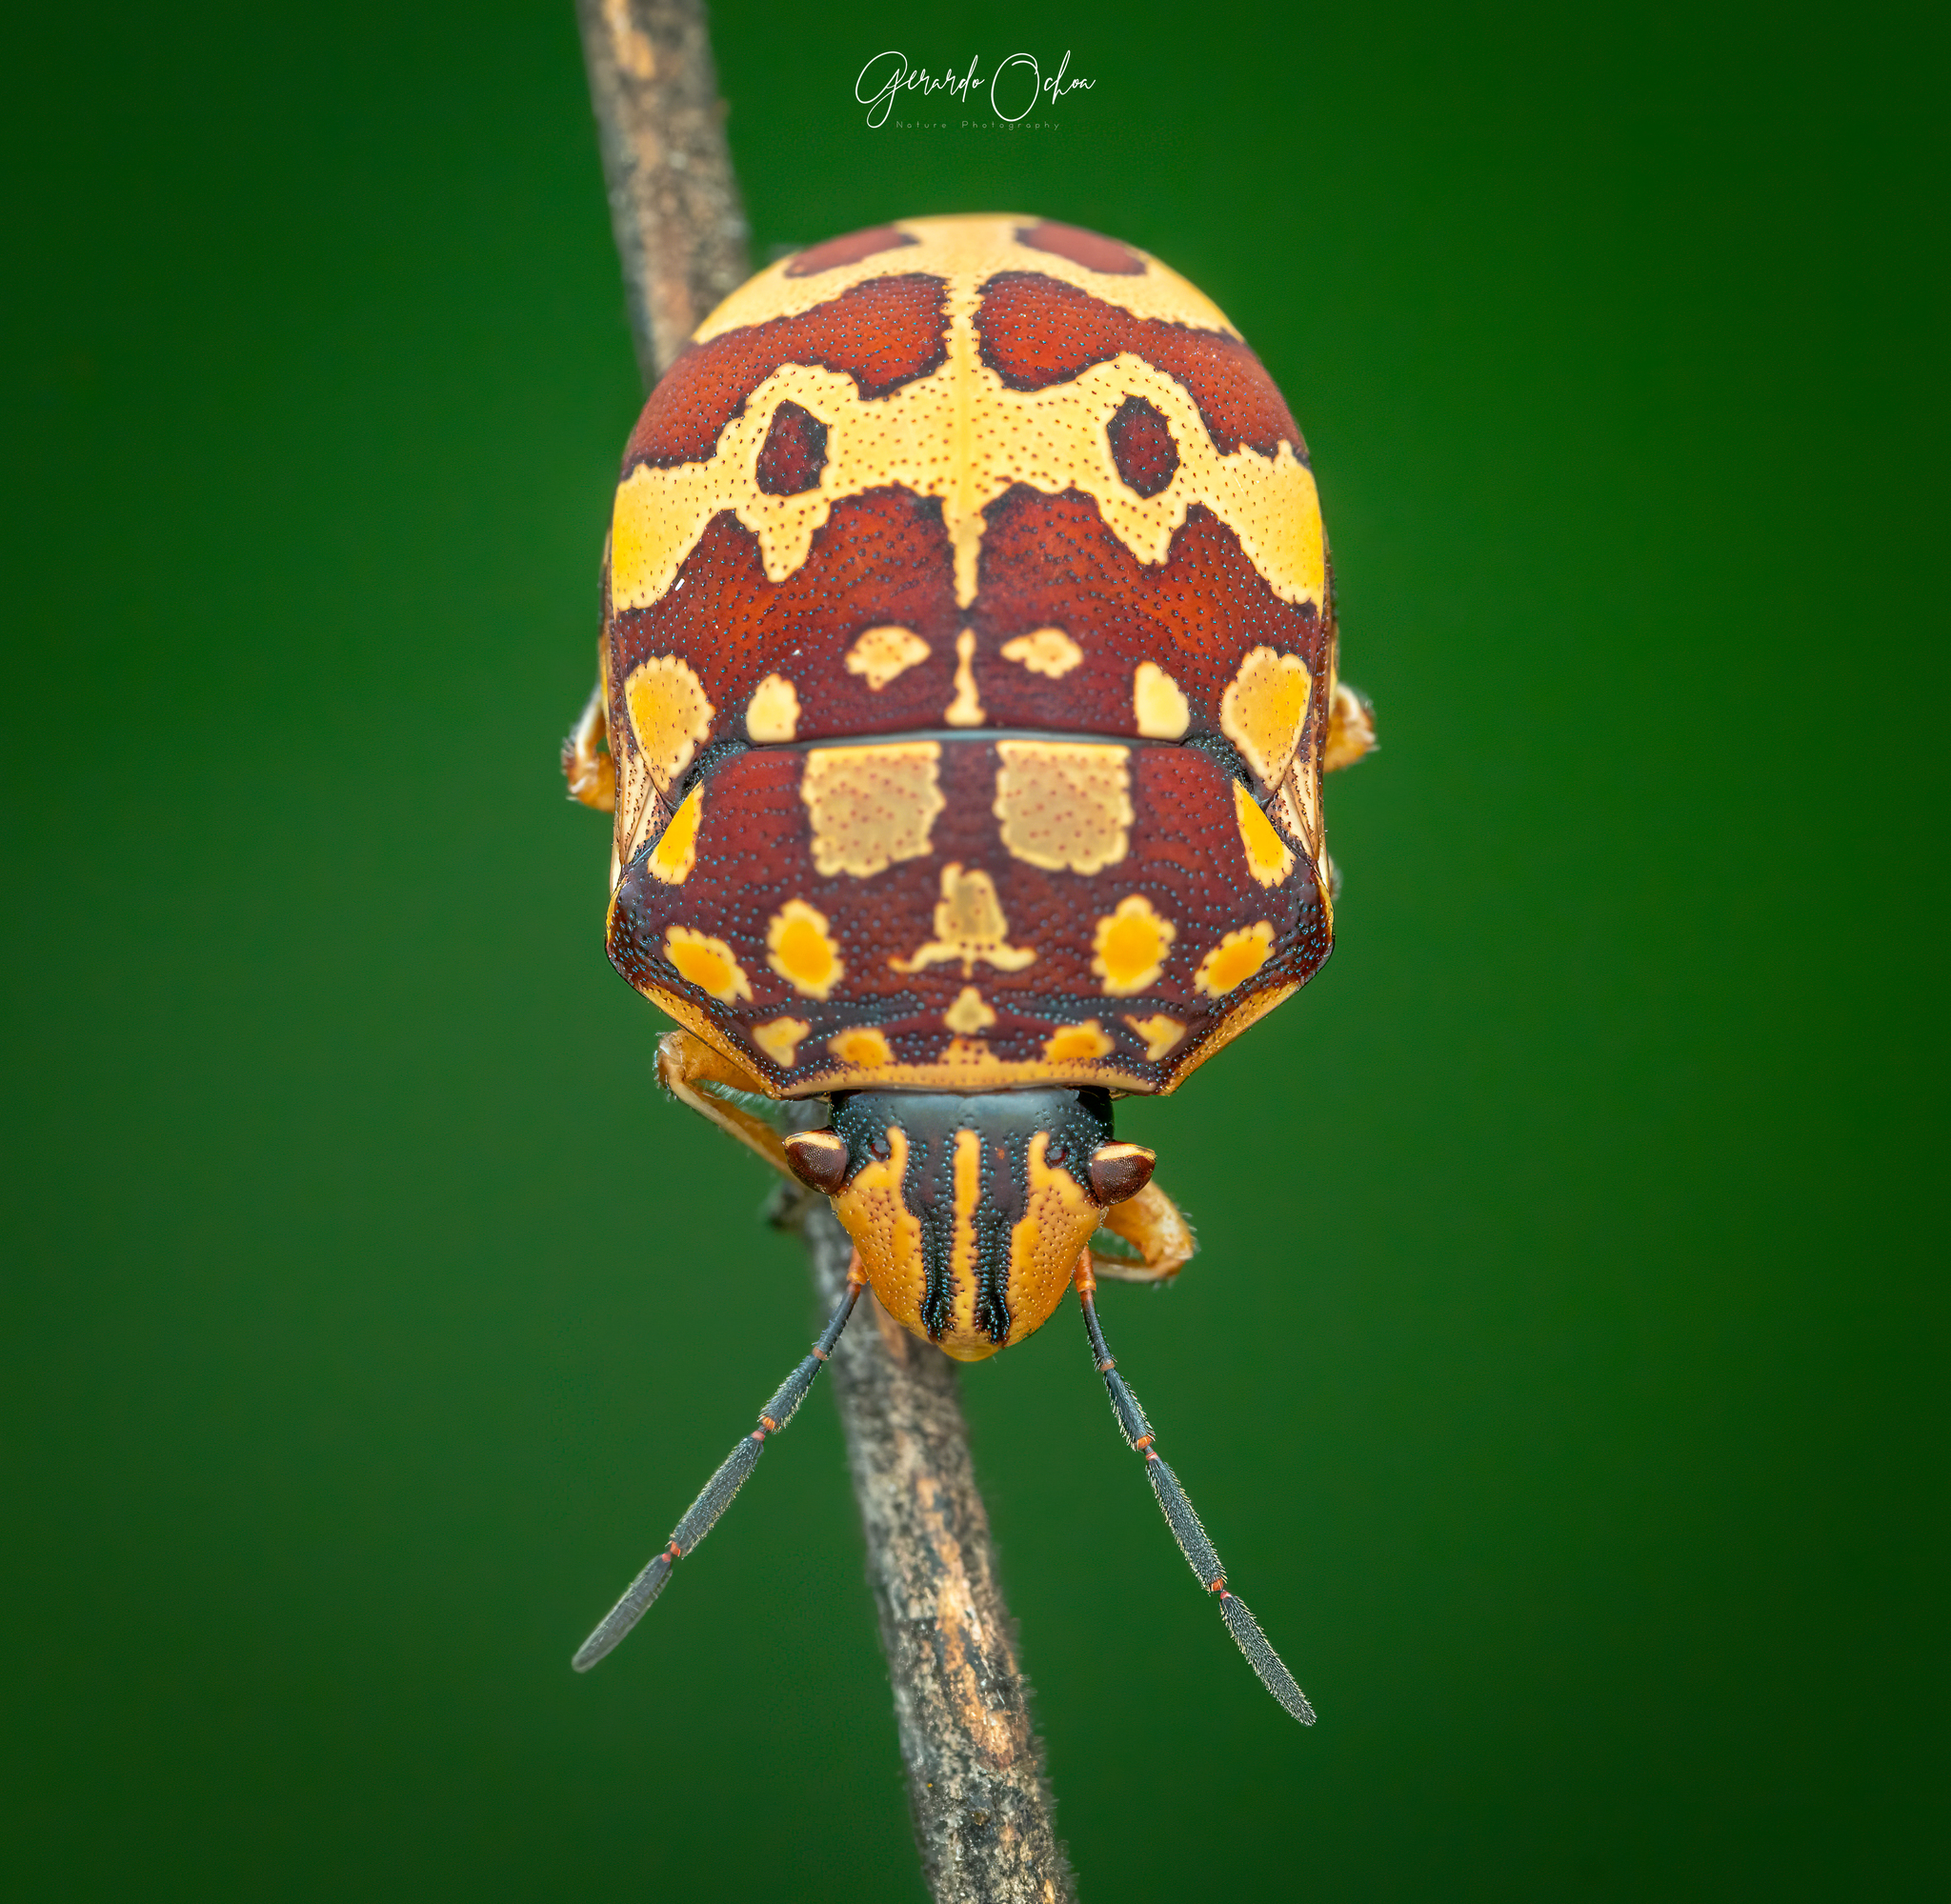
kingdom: Animalia
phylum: Arthropoda
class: Insecta
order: Hemiptera
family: Scutelleridae
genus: Orsilochides
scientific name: Orsilochides
